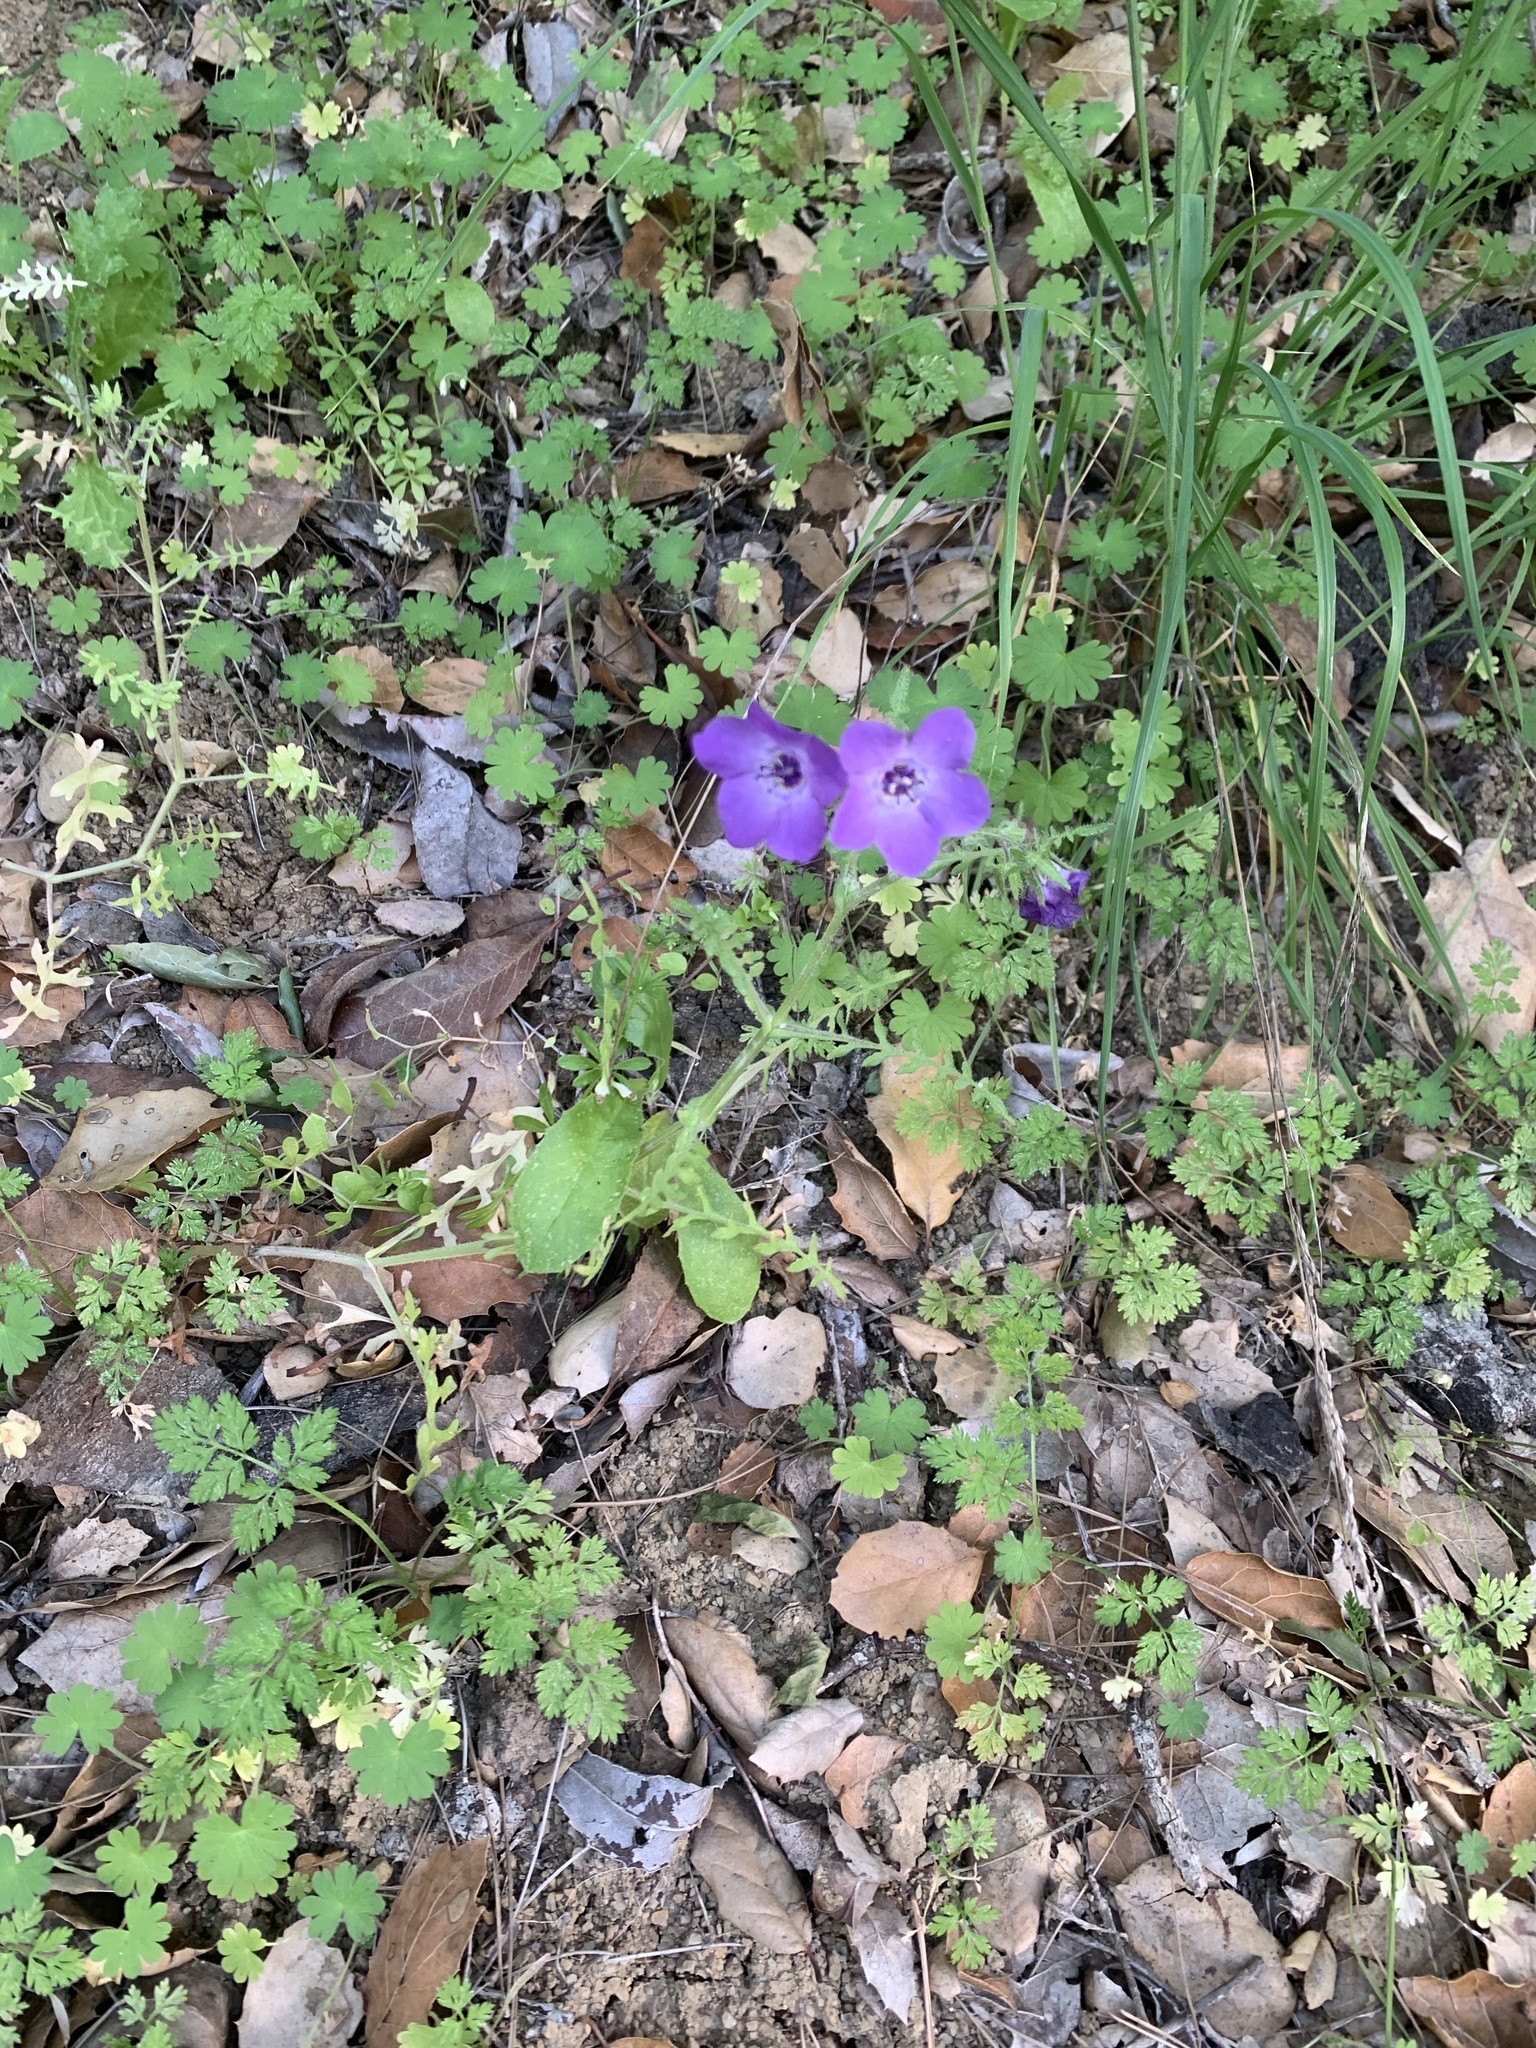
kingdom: Plantae
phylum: Tracheophyta
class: Magnoliopsida
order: Boraginales
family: Hydrophyllaceae
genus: Pholistoma
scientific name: Pholistoma auritum
